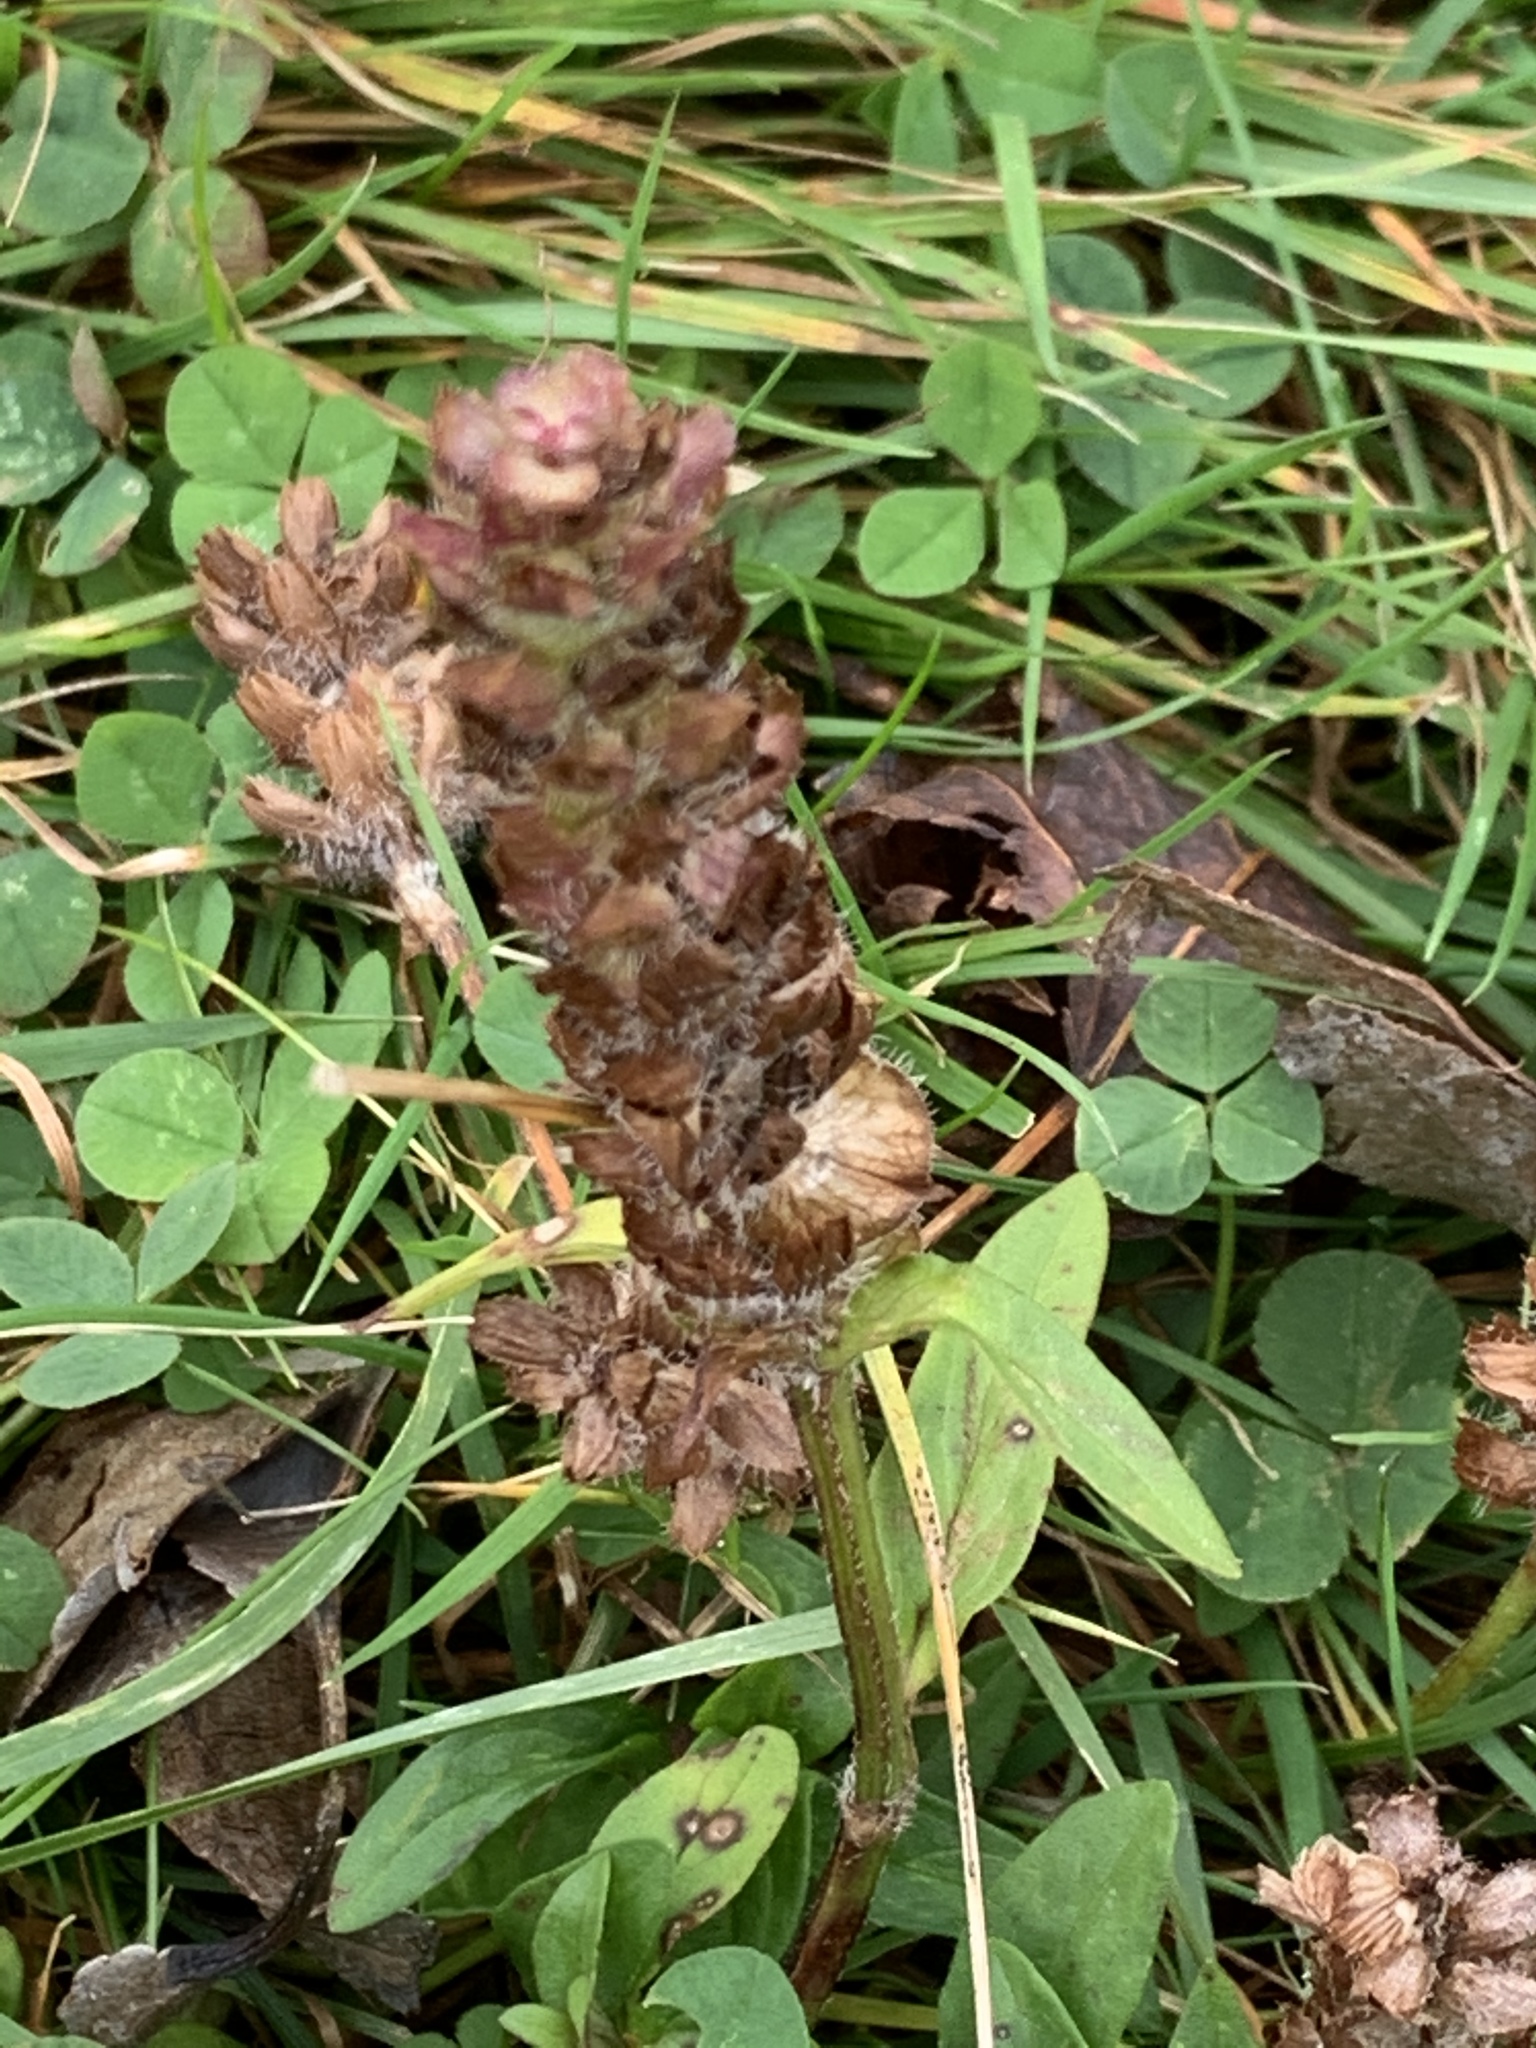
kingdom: Plantae
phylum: Tracheophyta
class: Magnoliopsida
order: Lamiales
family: Lamiaceae
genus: Prunella
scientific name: Prunella vulgaris
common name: Heal-all
